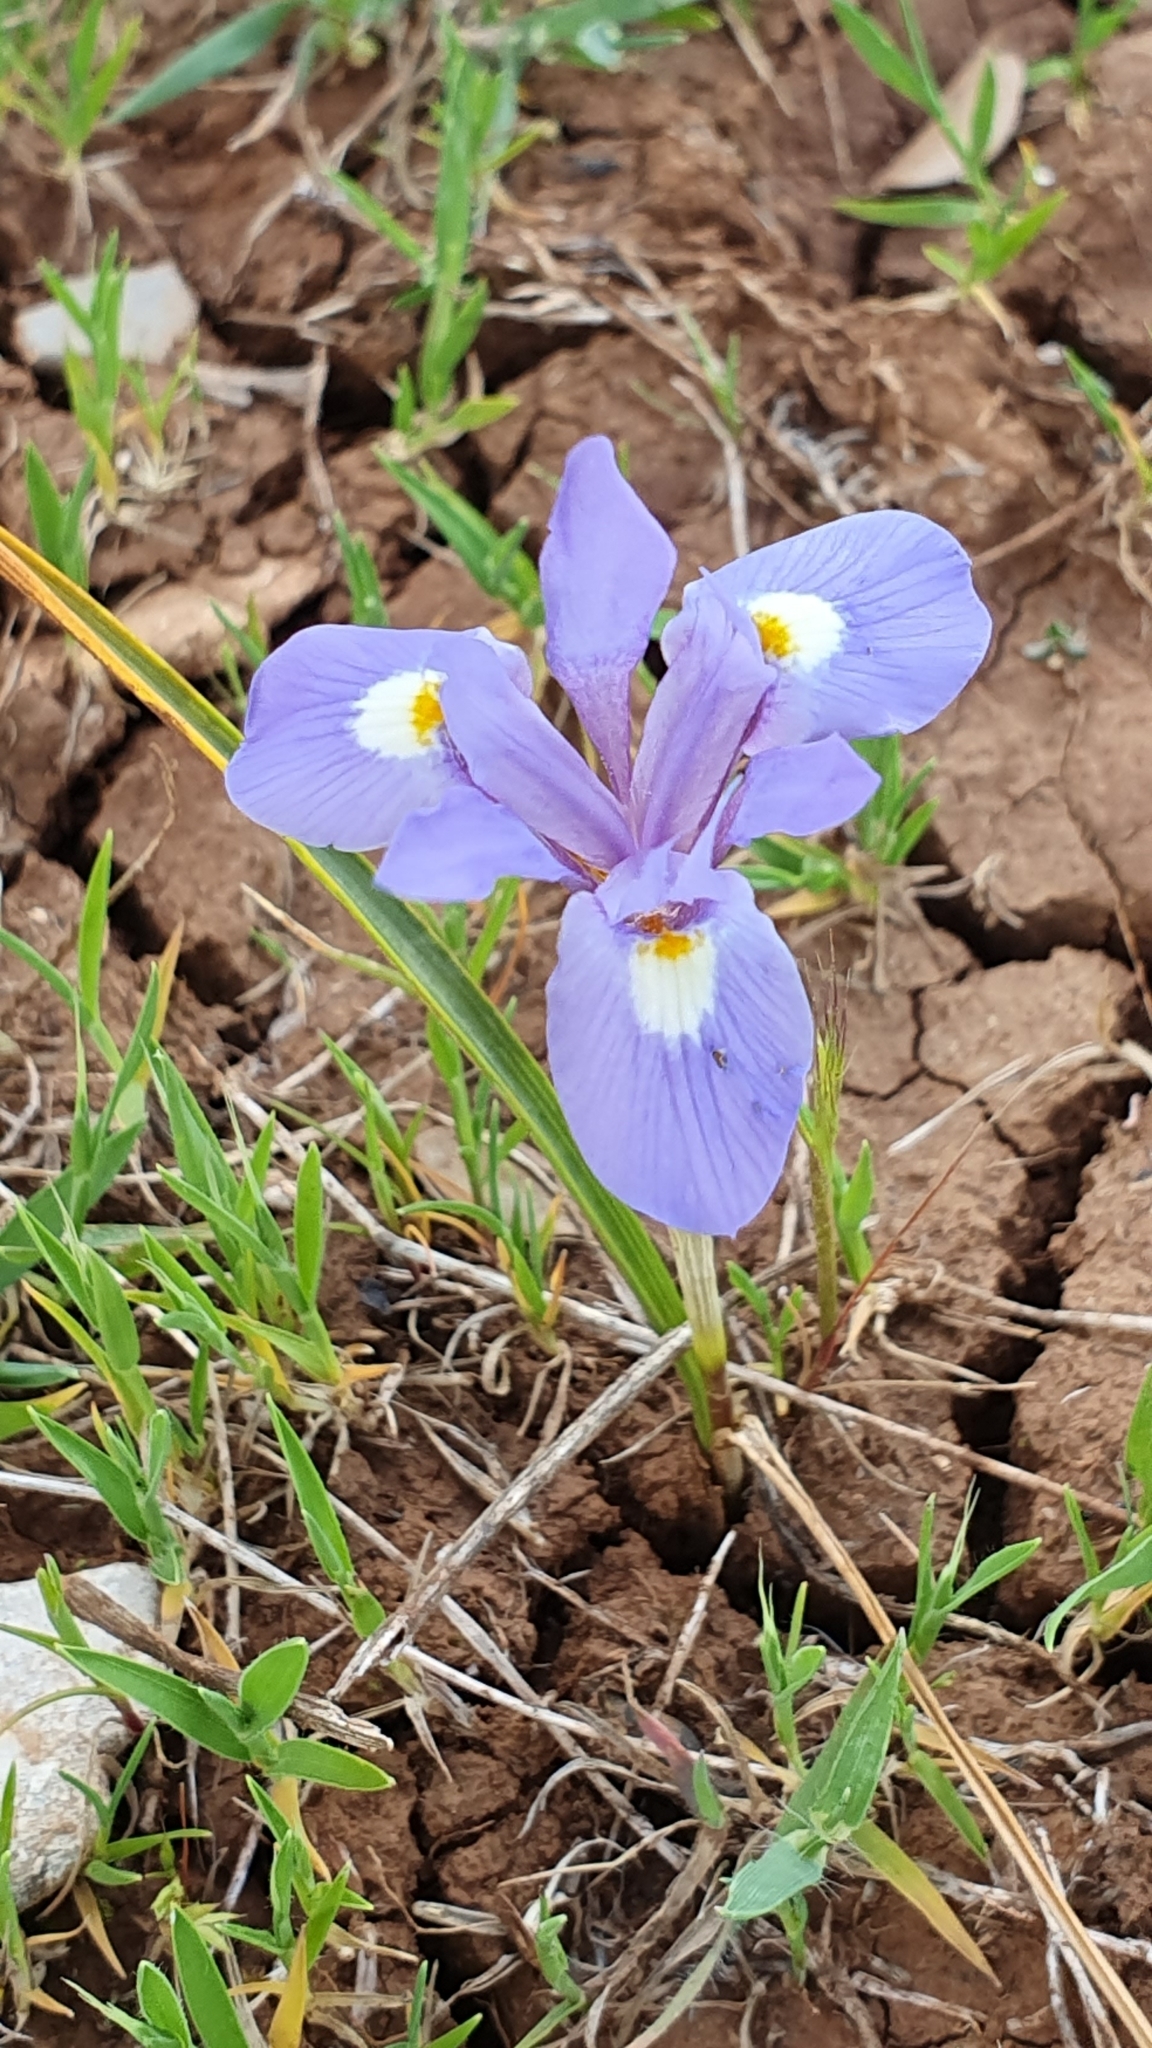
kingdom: Plantae
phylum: Tracheophyta
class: Liliopsida
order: Asparagales
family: Iridaceae
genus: Moraea
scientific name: Moraea sisyrinchium
